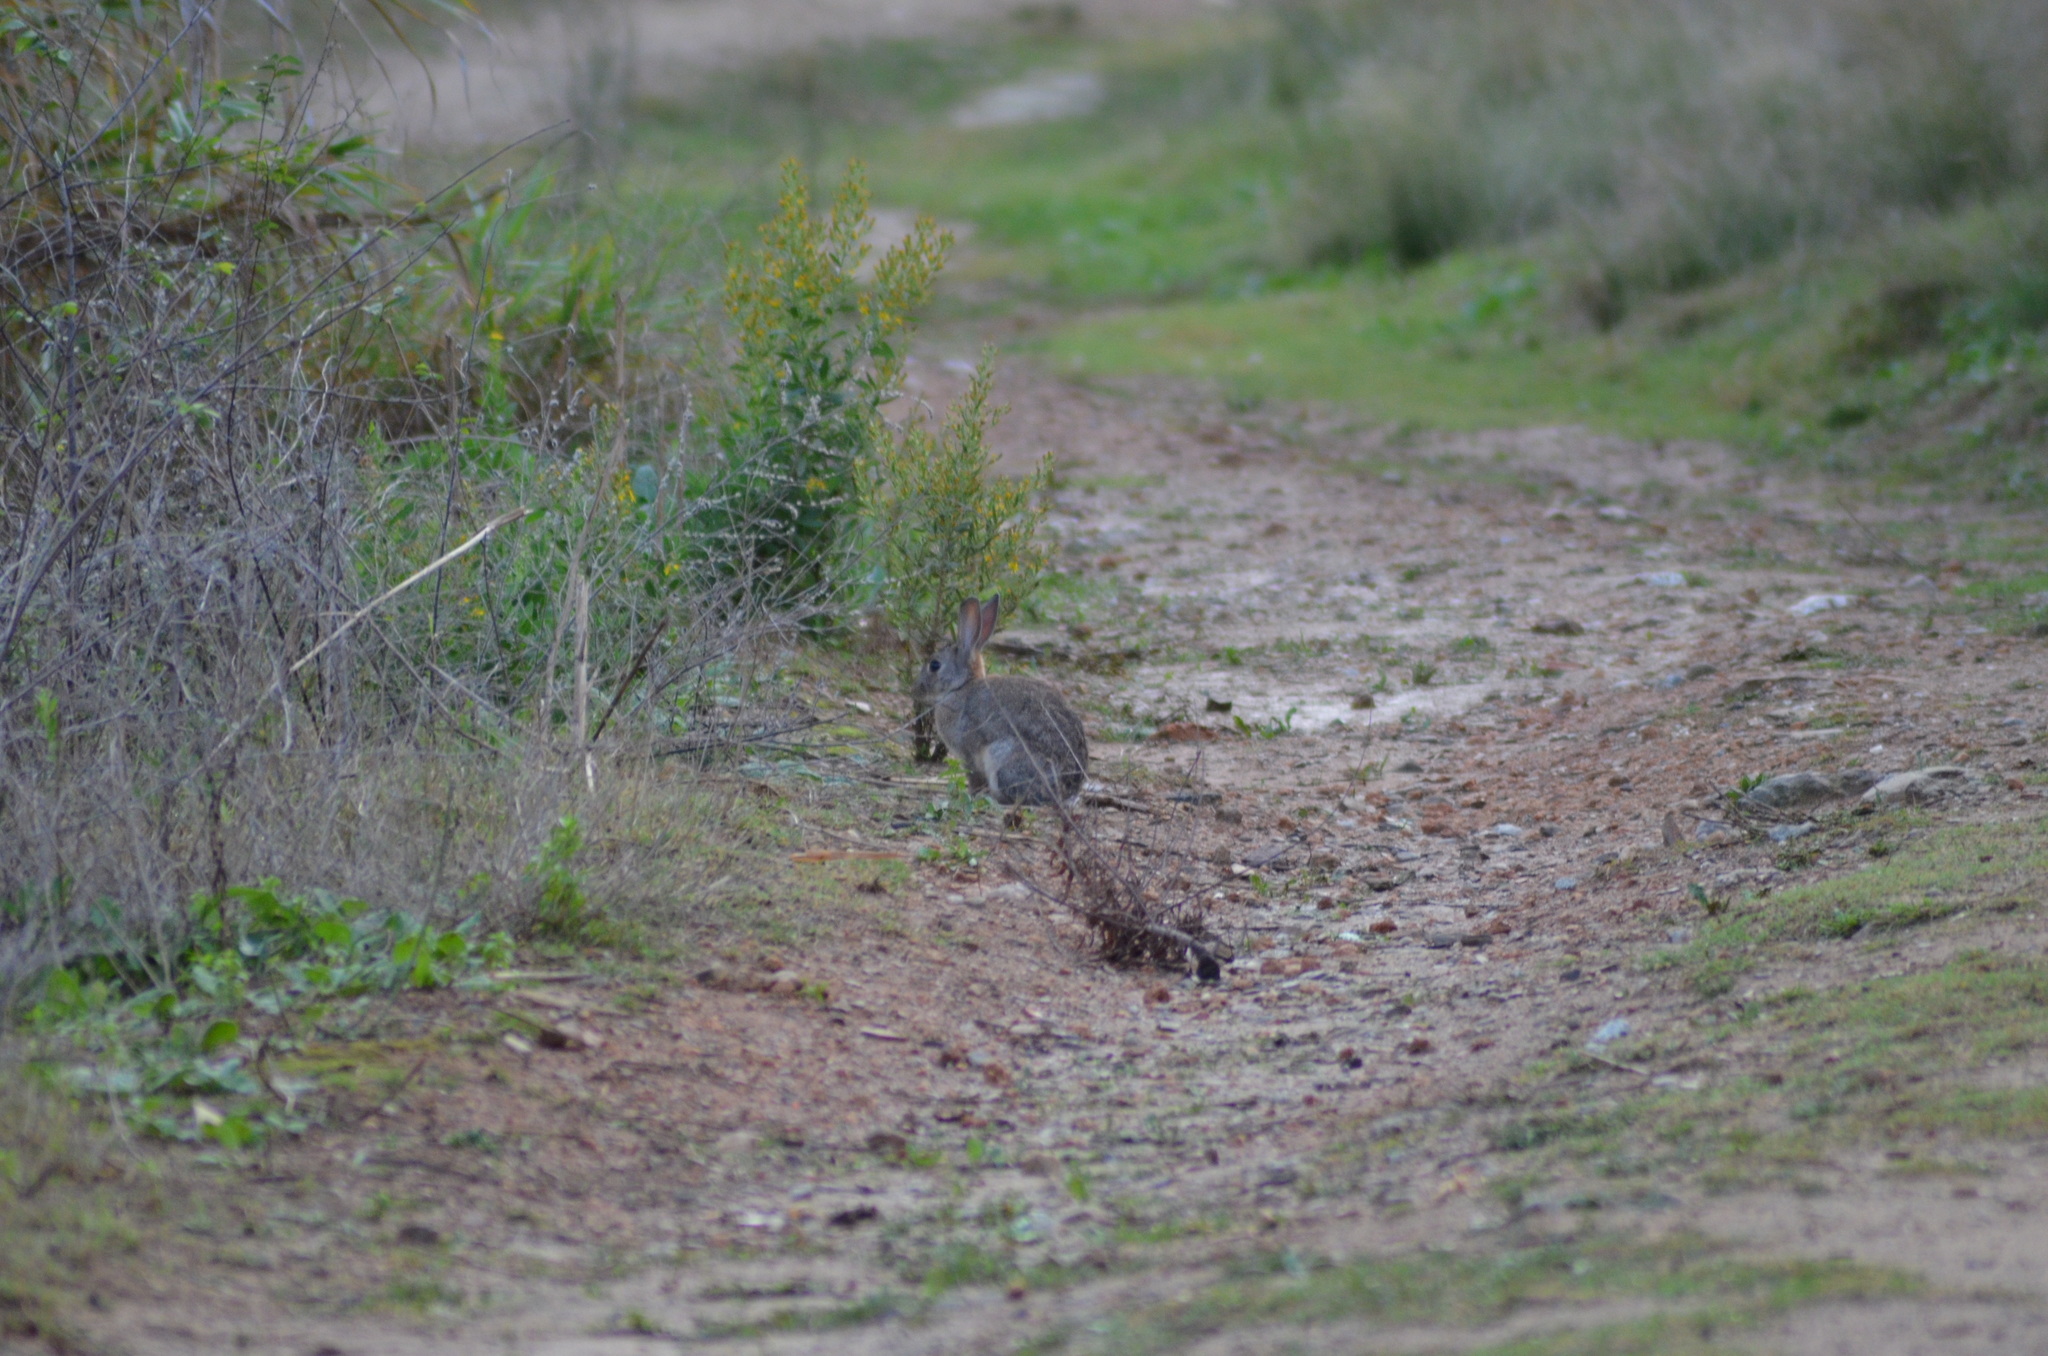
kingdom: Animalia
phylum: Chordata
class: Mammalia
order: Lagomorpha
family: Leporidae
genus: Oryctolagus
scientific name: Oryctolagus cuniculus
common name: European rabbit
